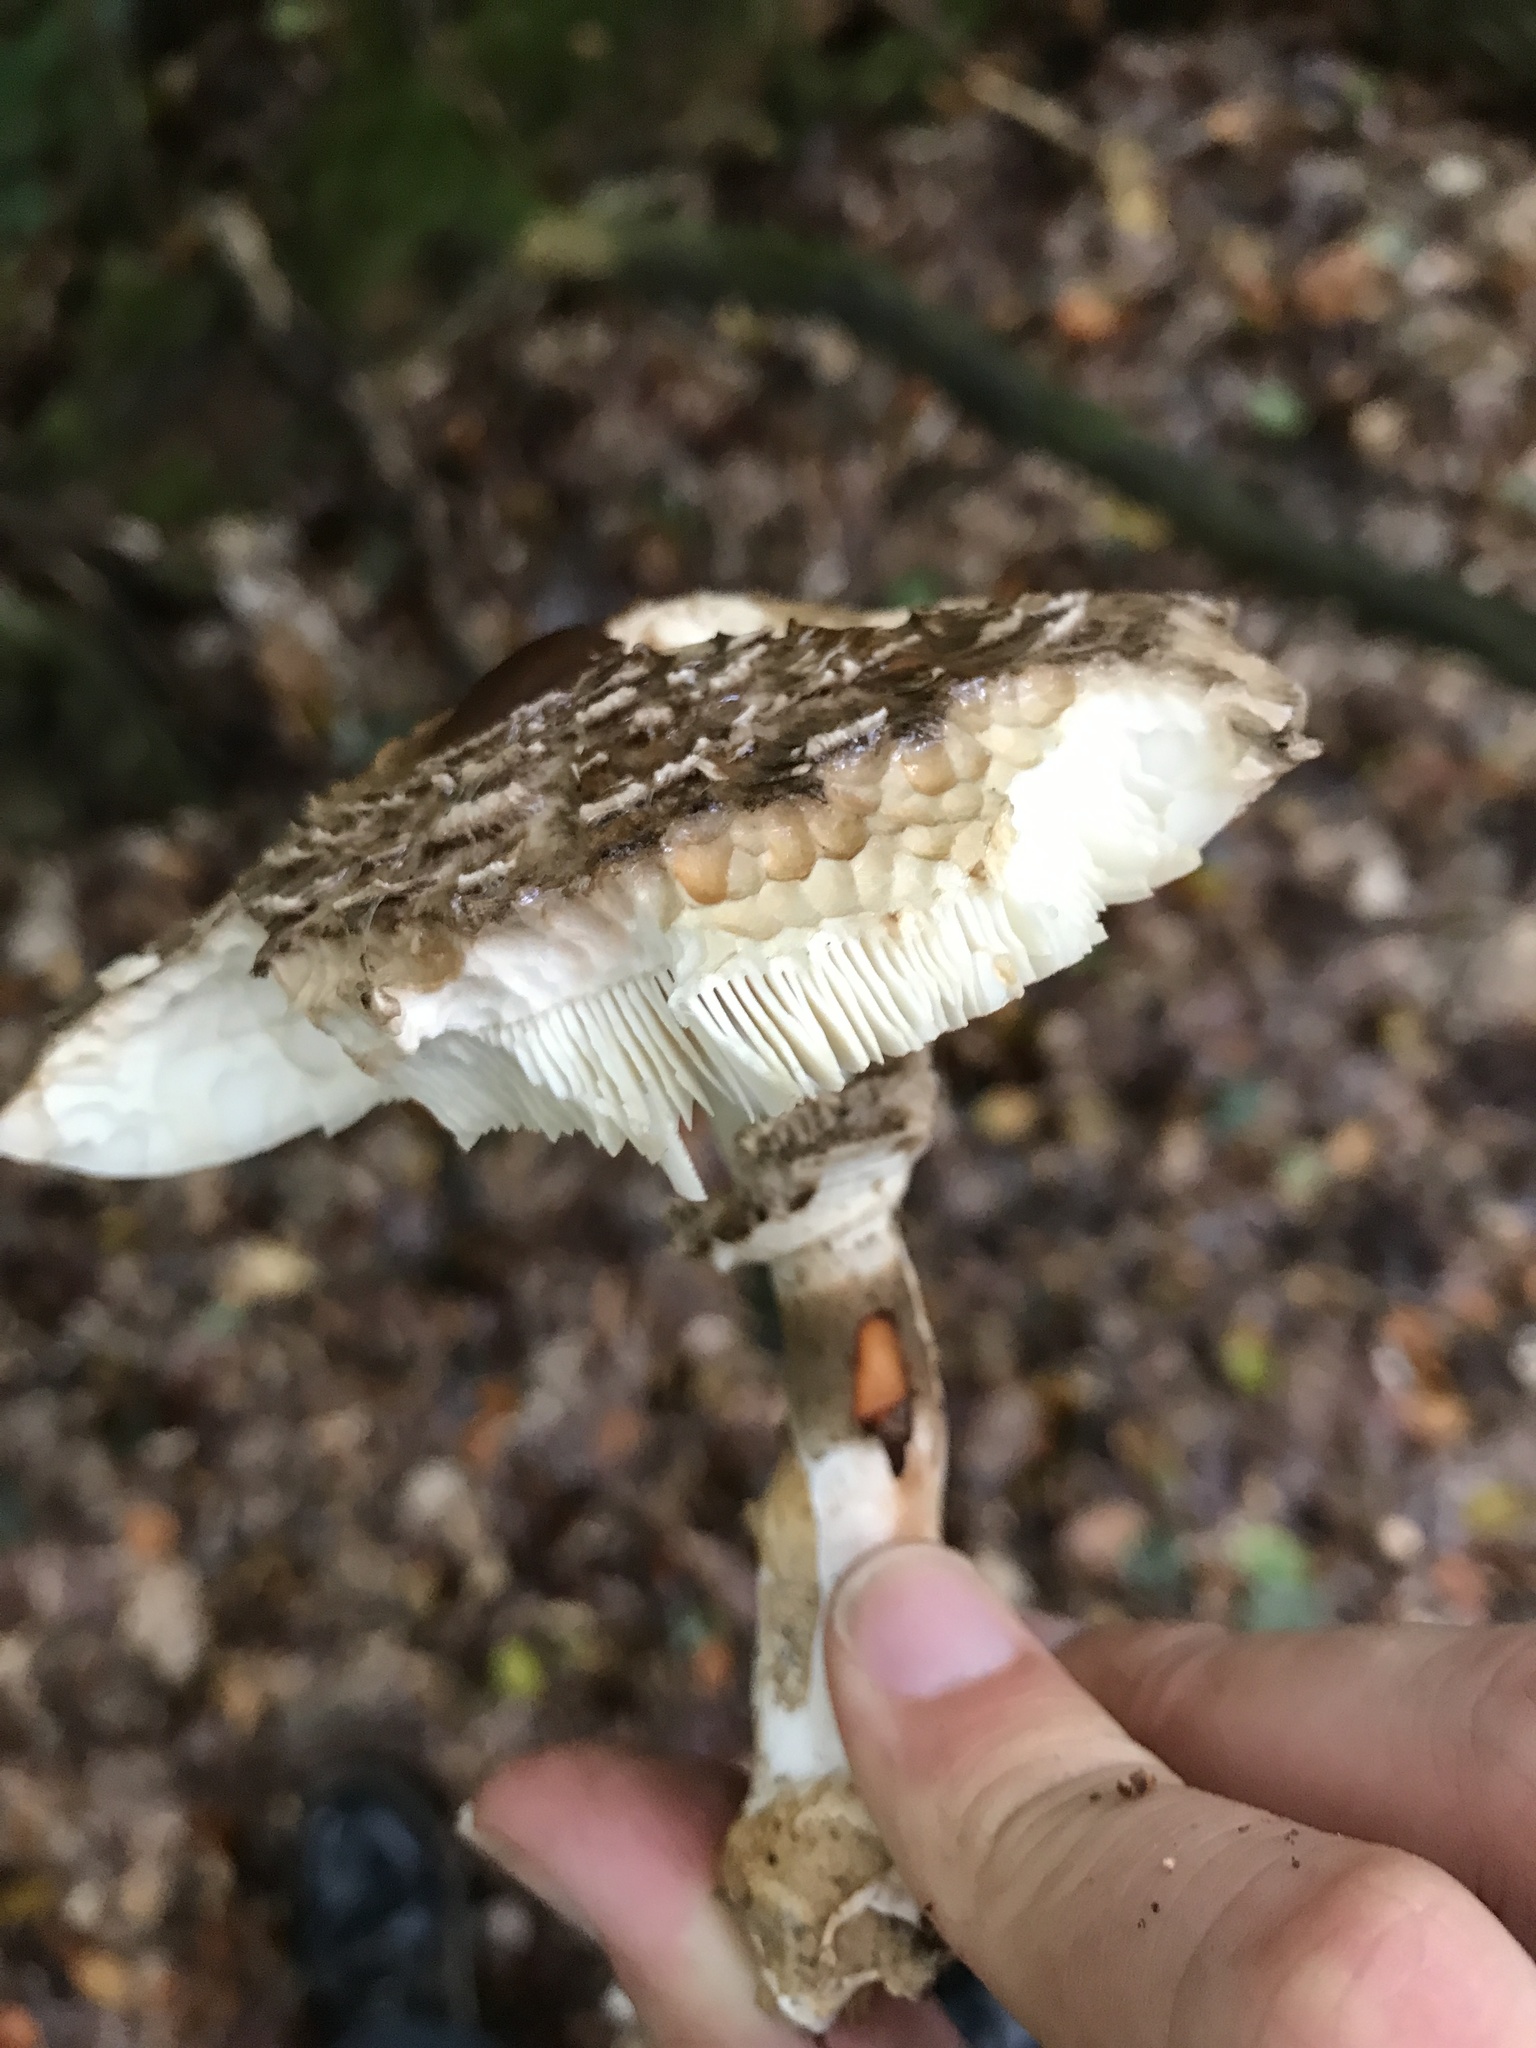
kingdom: Fungi
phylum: Basidiomycota
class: Agaricomycetes
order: Agaricales
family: Agaricaceae
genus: Chlorophyllum
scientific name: Chlorophyllum olivieri
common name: Conifer parasol
